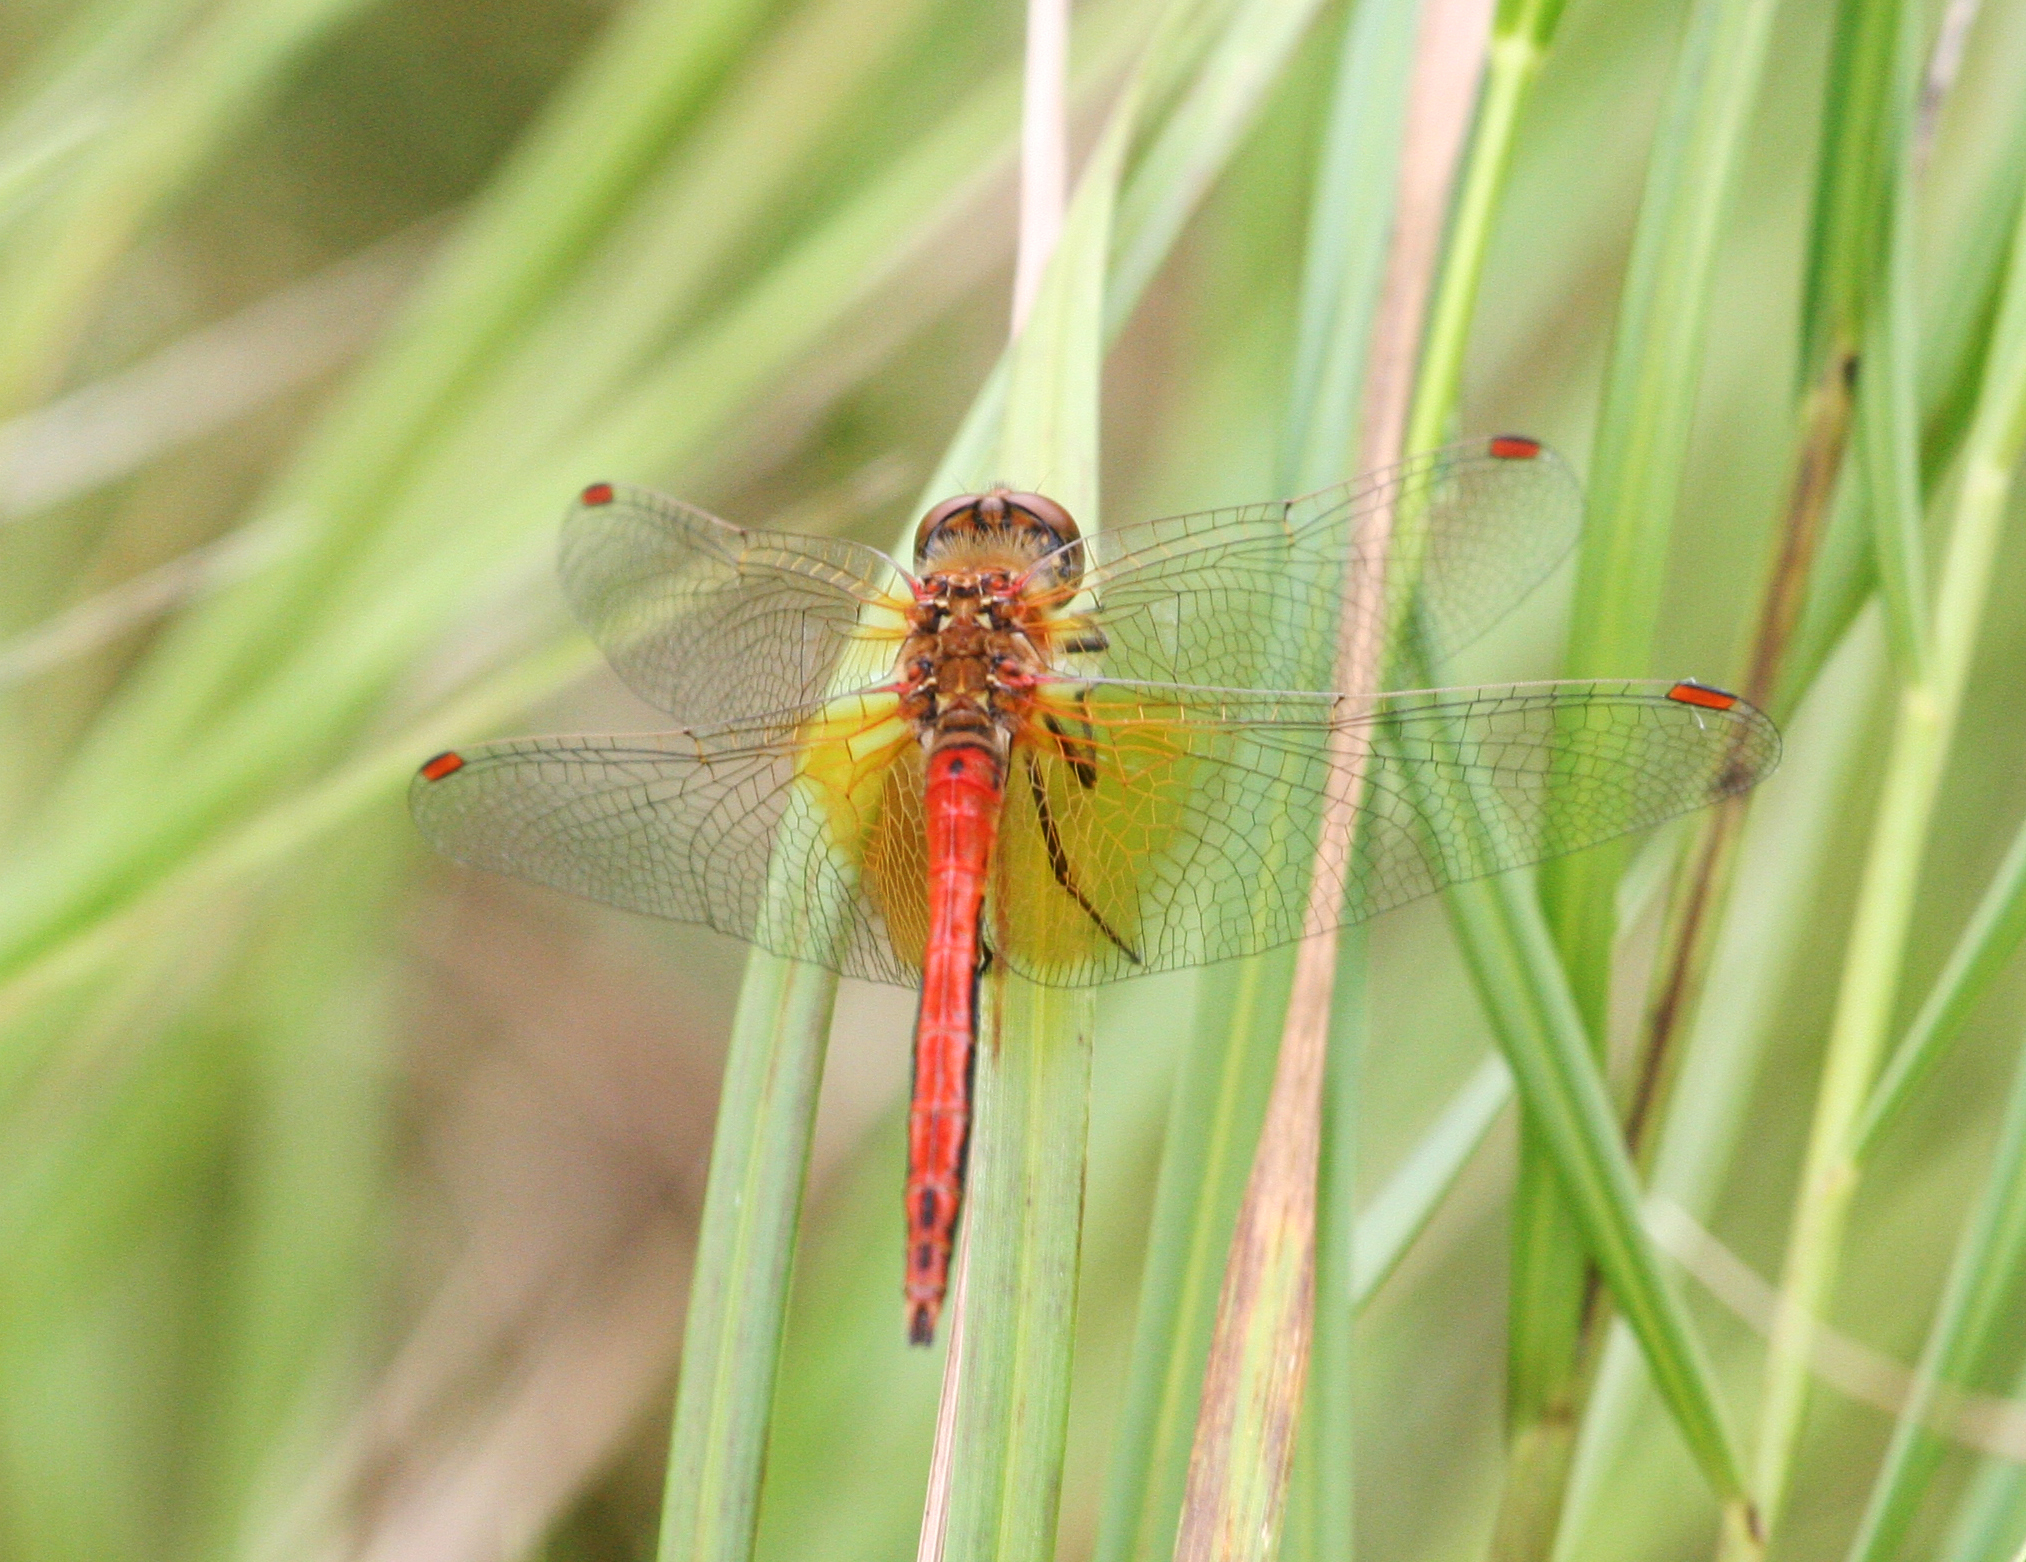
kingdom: Animalia
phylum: Arthropoda
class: Insecta
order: Odonata
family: Libellulidae
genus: Sympetrum
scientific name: Sympetrum flaveolum
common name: Yellow-winged darter
